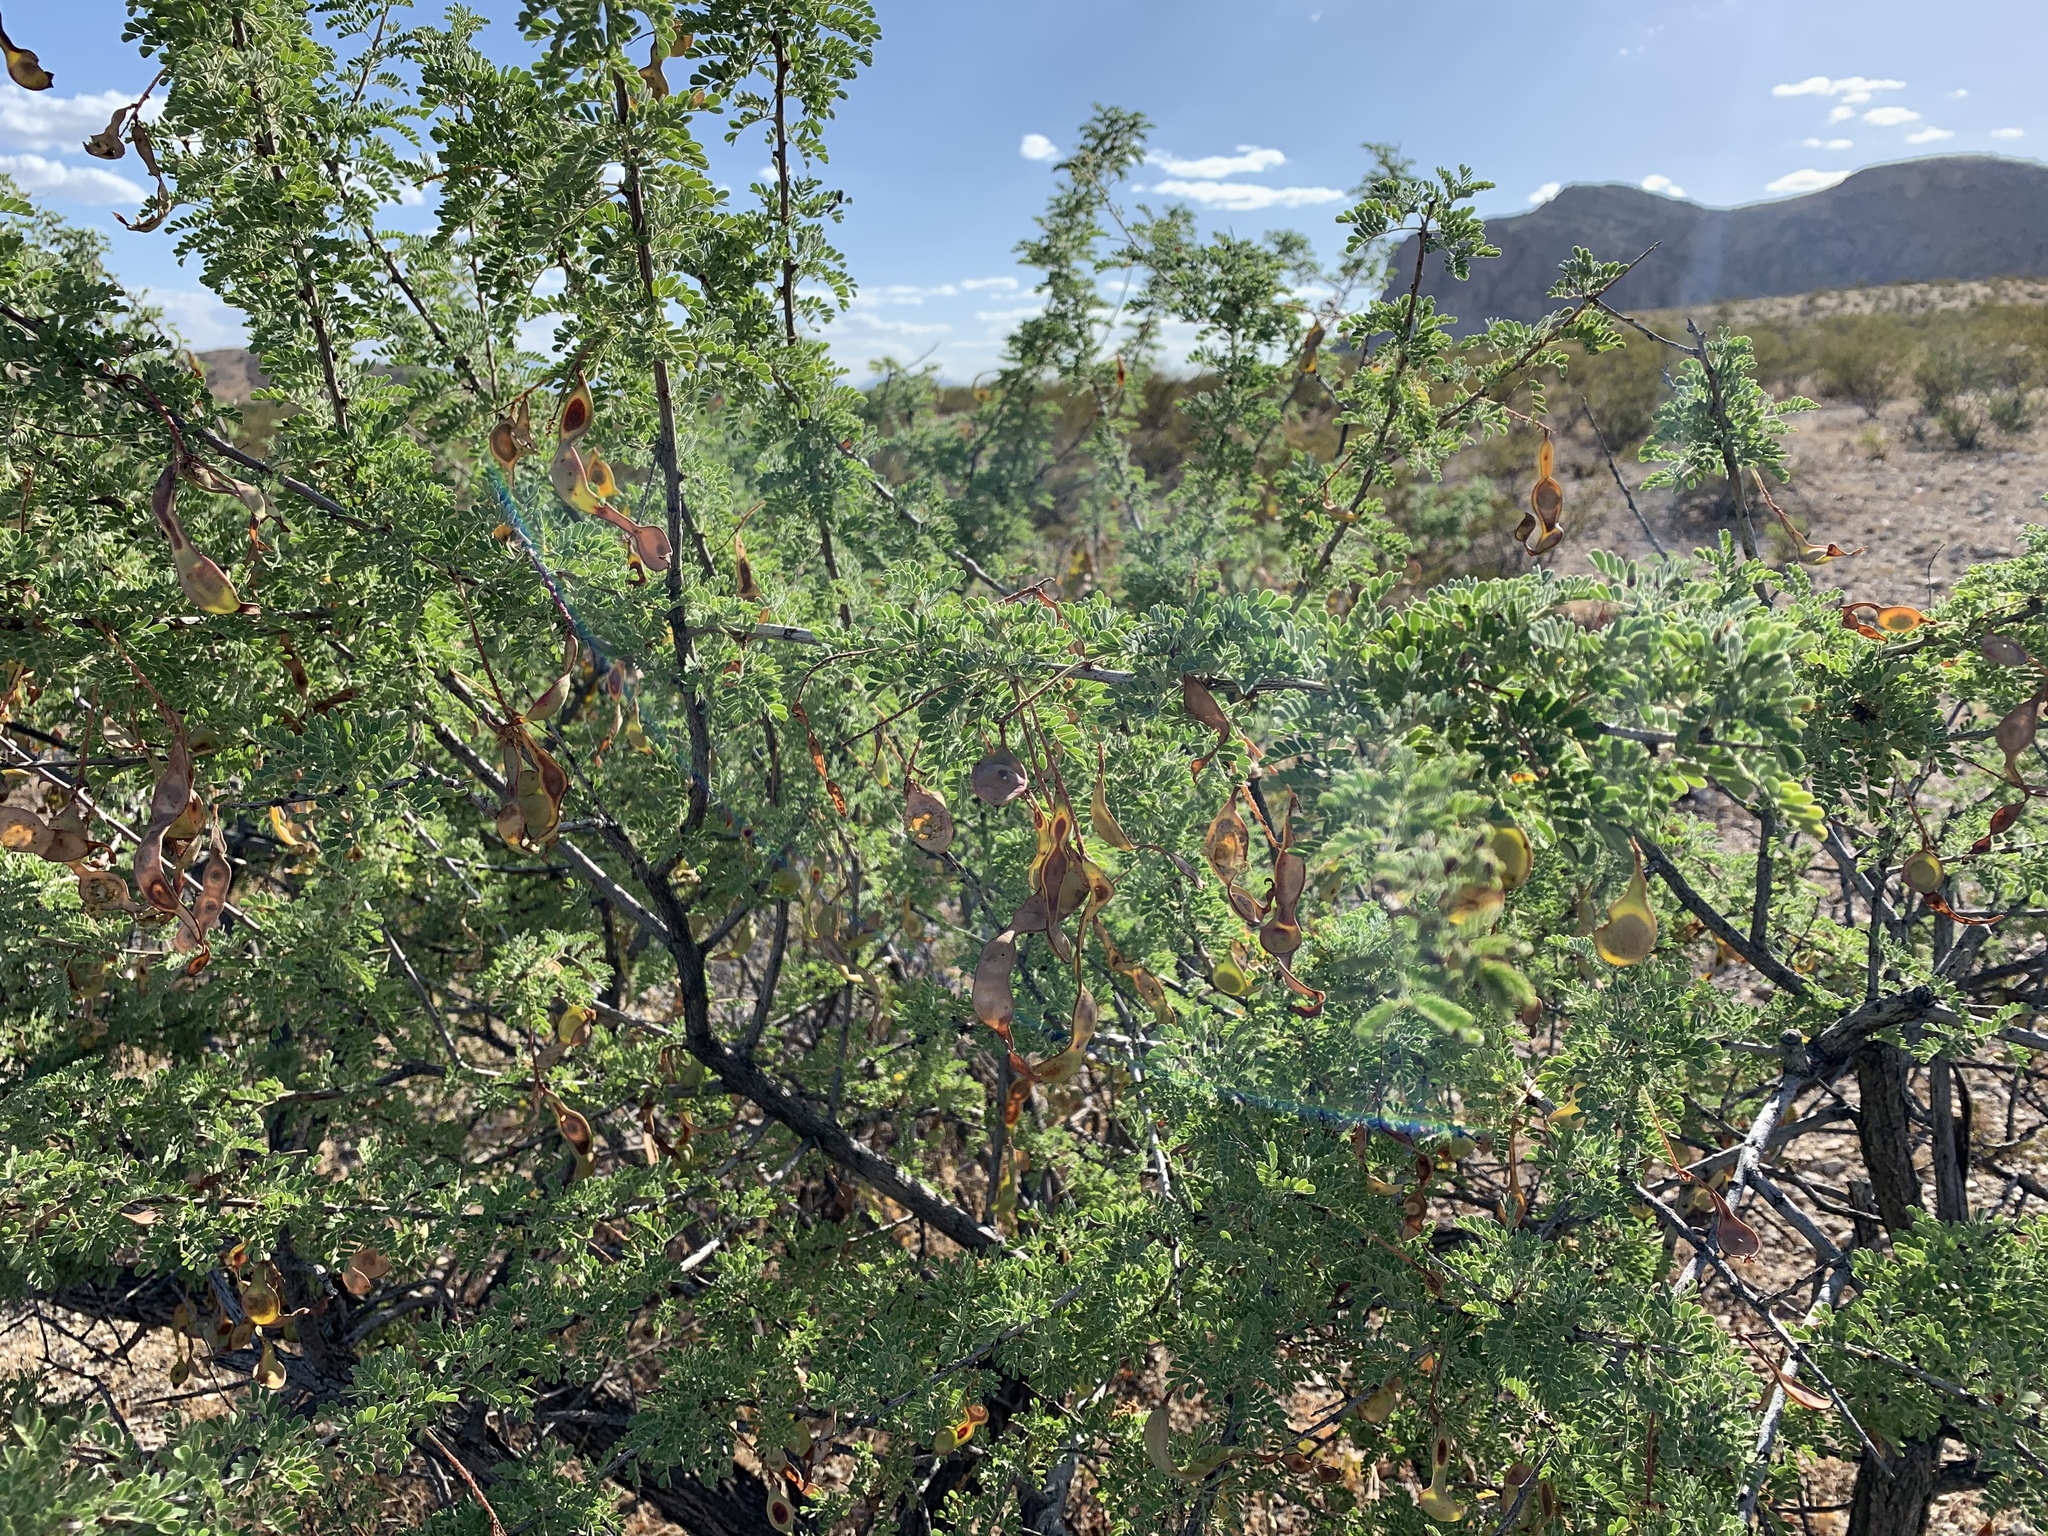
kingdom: Plantae
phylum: Tracheophyta
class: Magnoliopsida
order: Fabales
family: Fabaceae
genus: Senegalia
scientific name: Senegalia greggii
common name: Texas-mimosa
